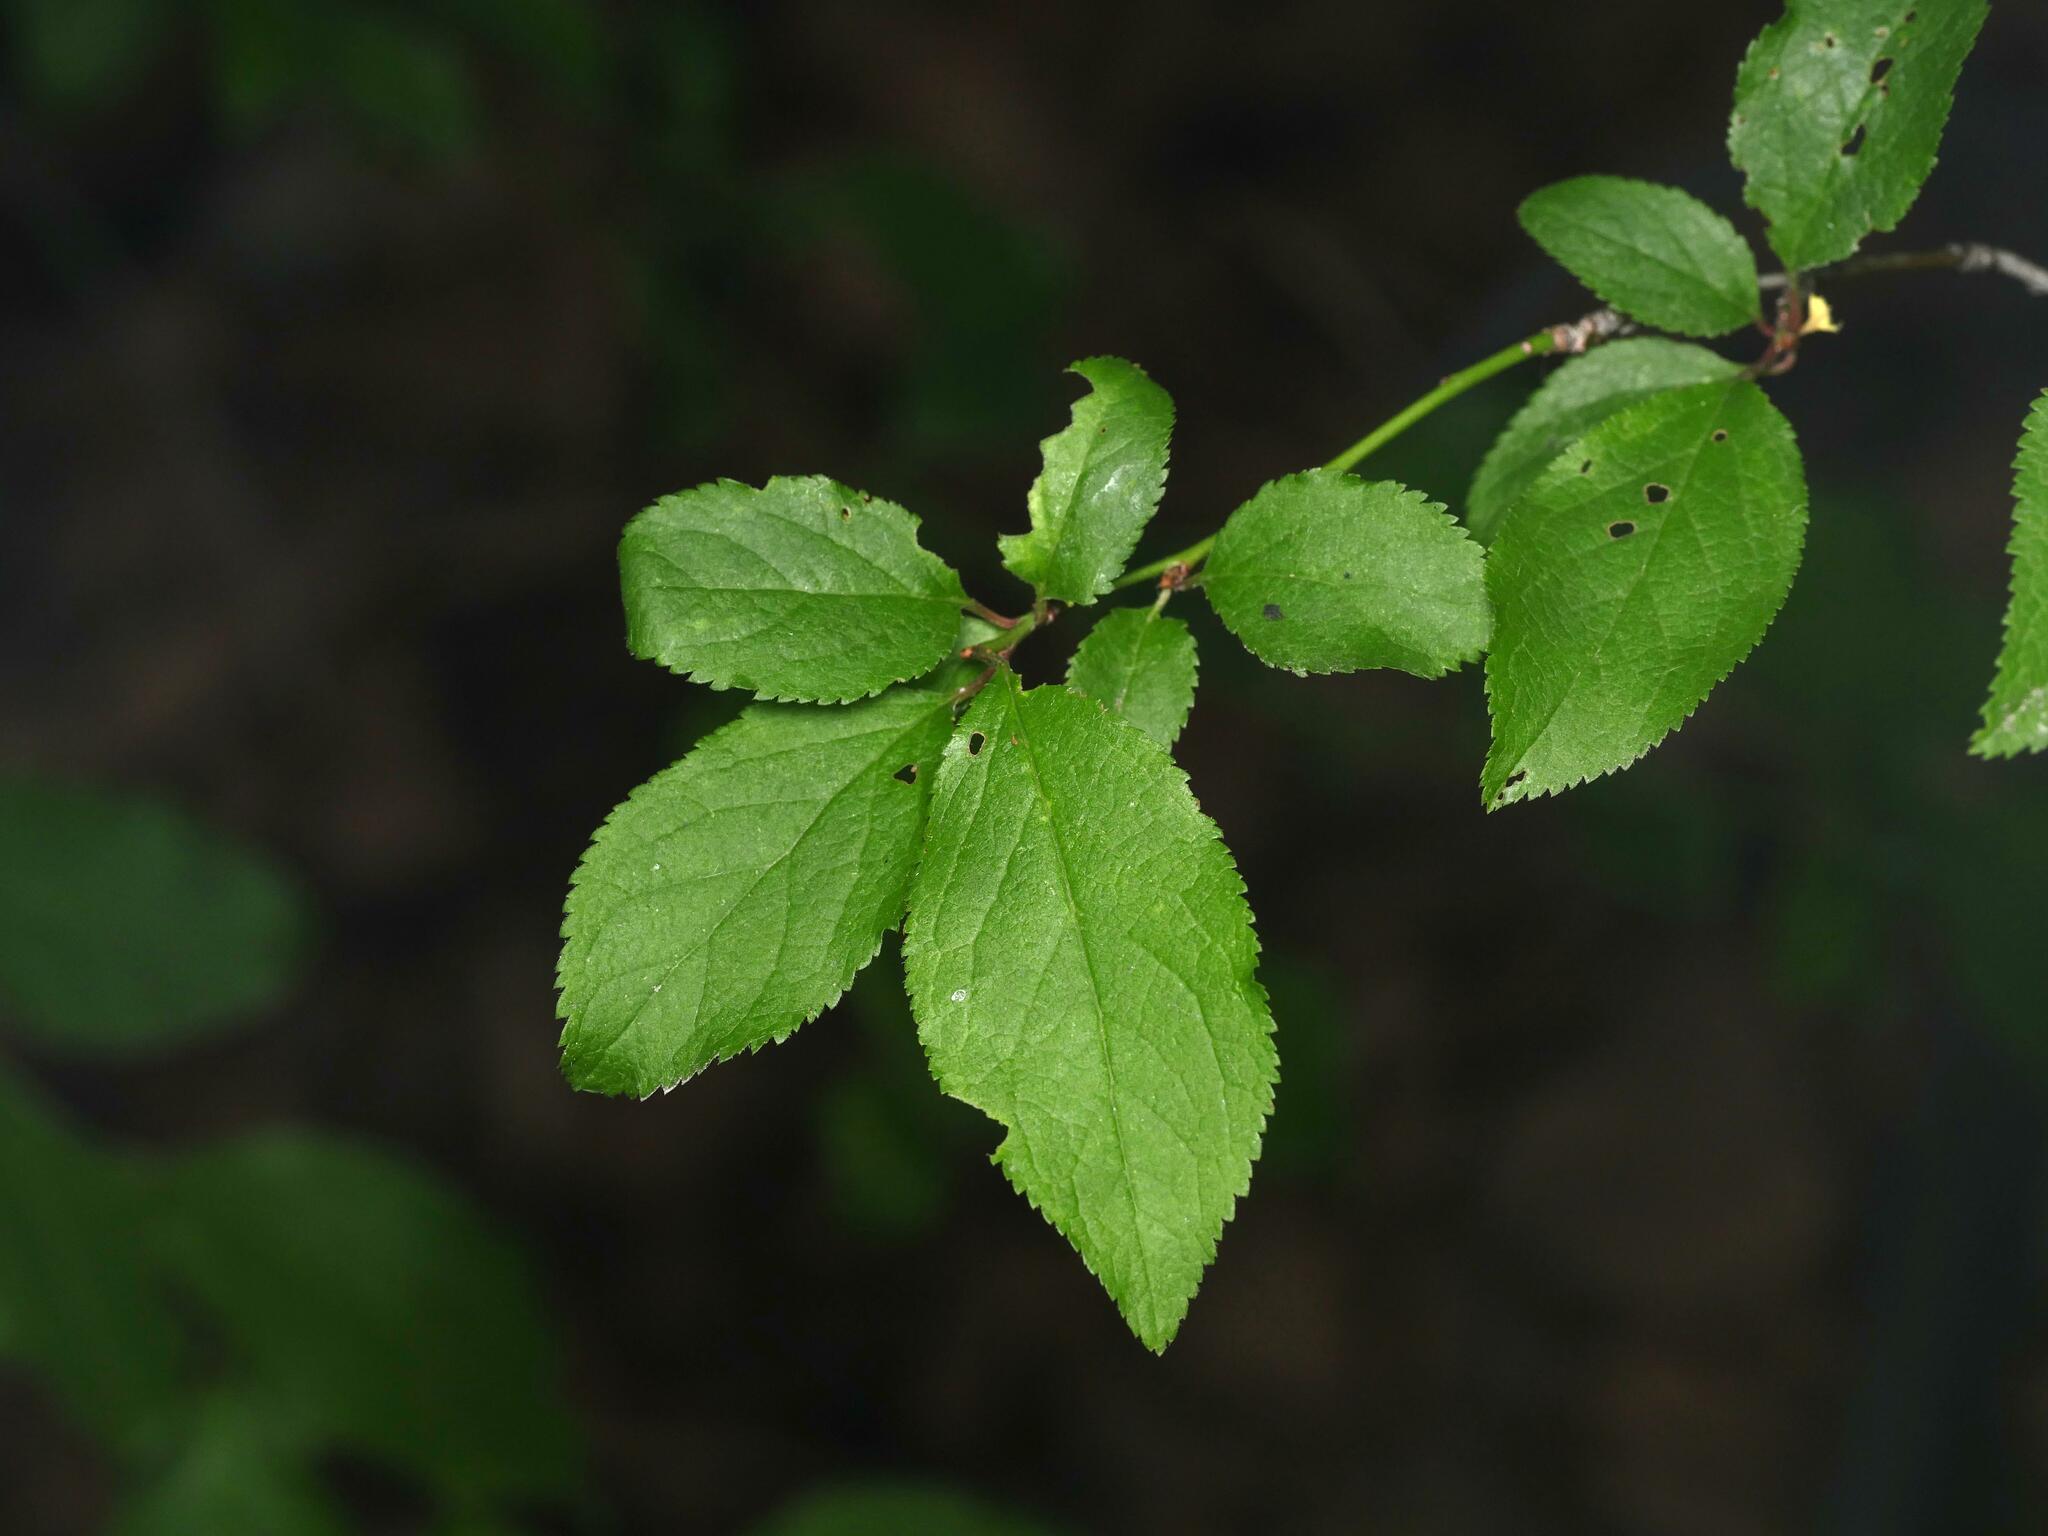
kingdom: Plantae
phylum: Tracheophyta
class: Magnoliopsida
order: Rosales
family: Rosaceae
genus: Prunus
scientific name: Prunus cerasifera
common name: Cherry plum
